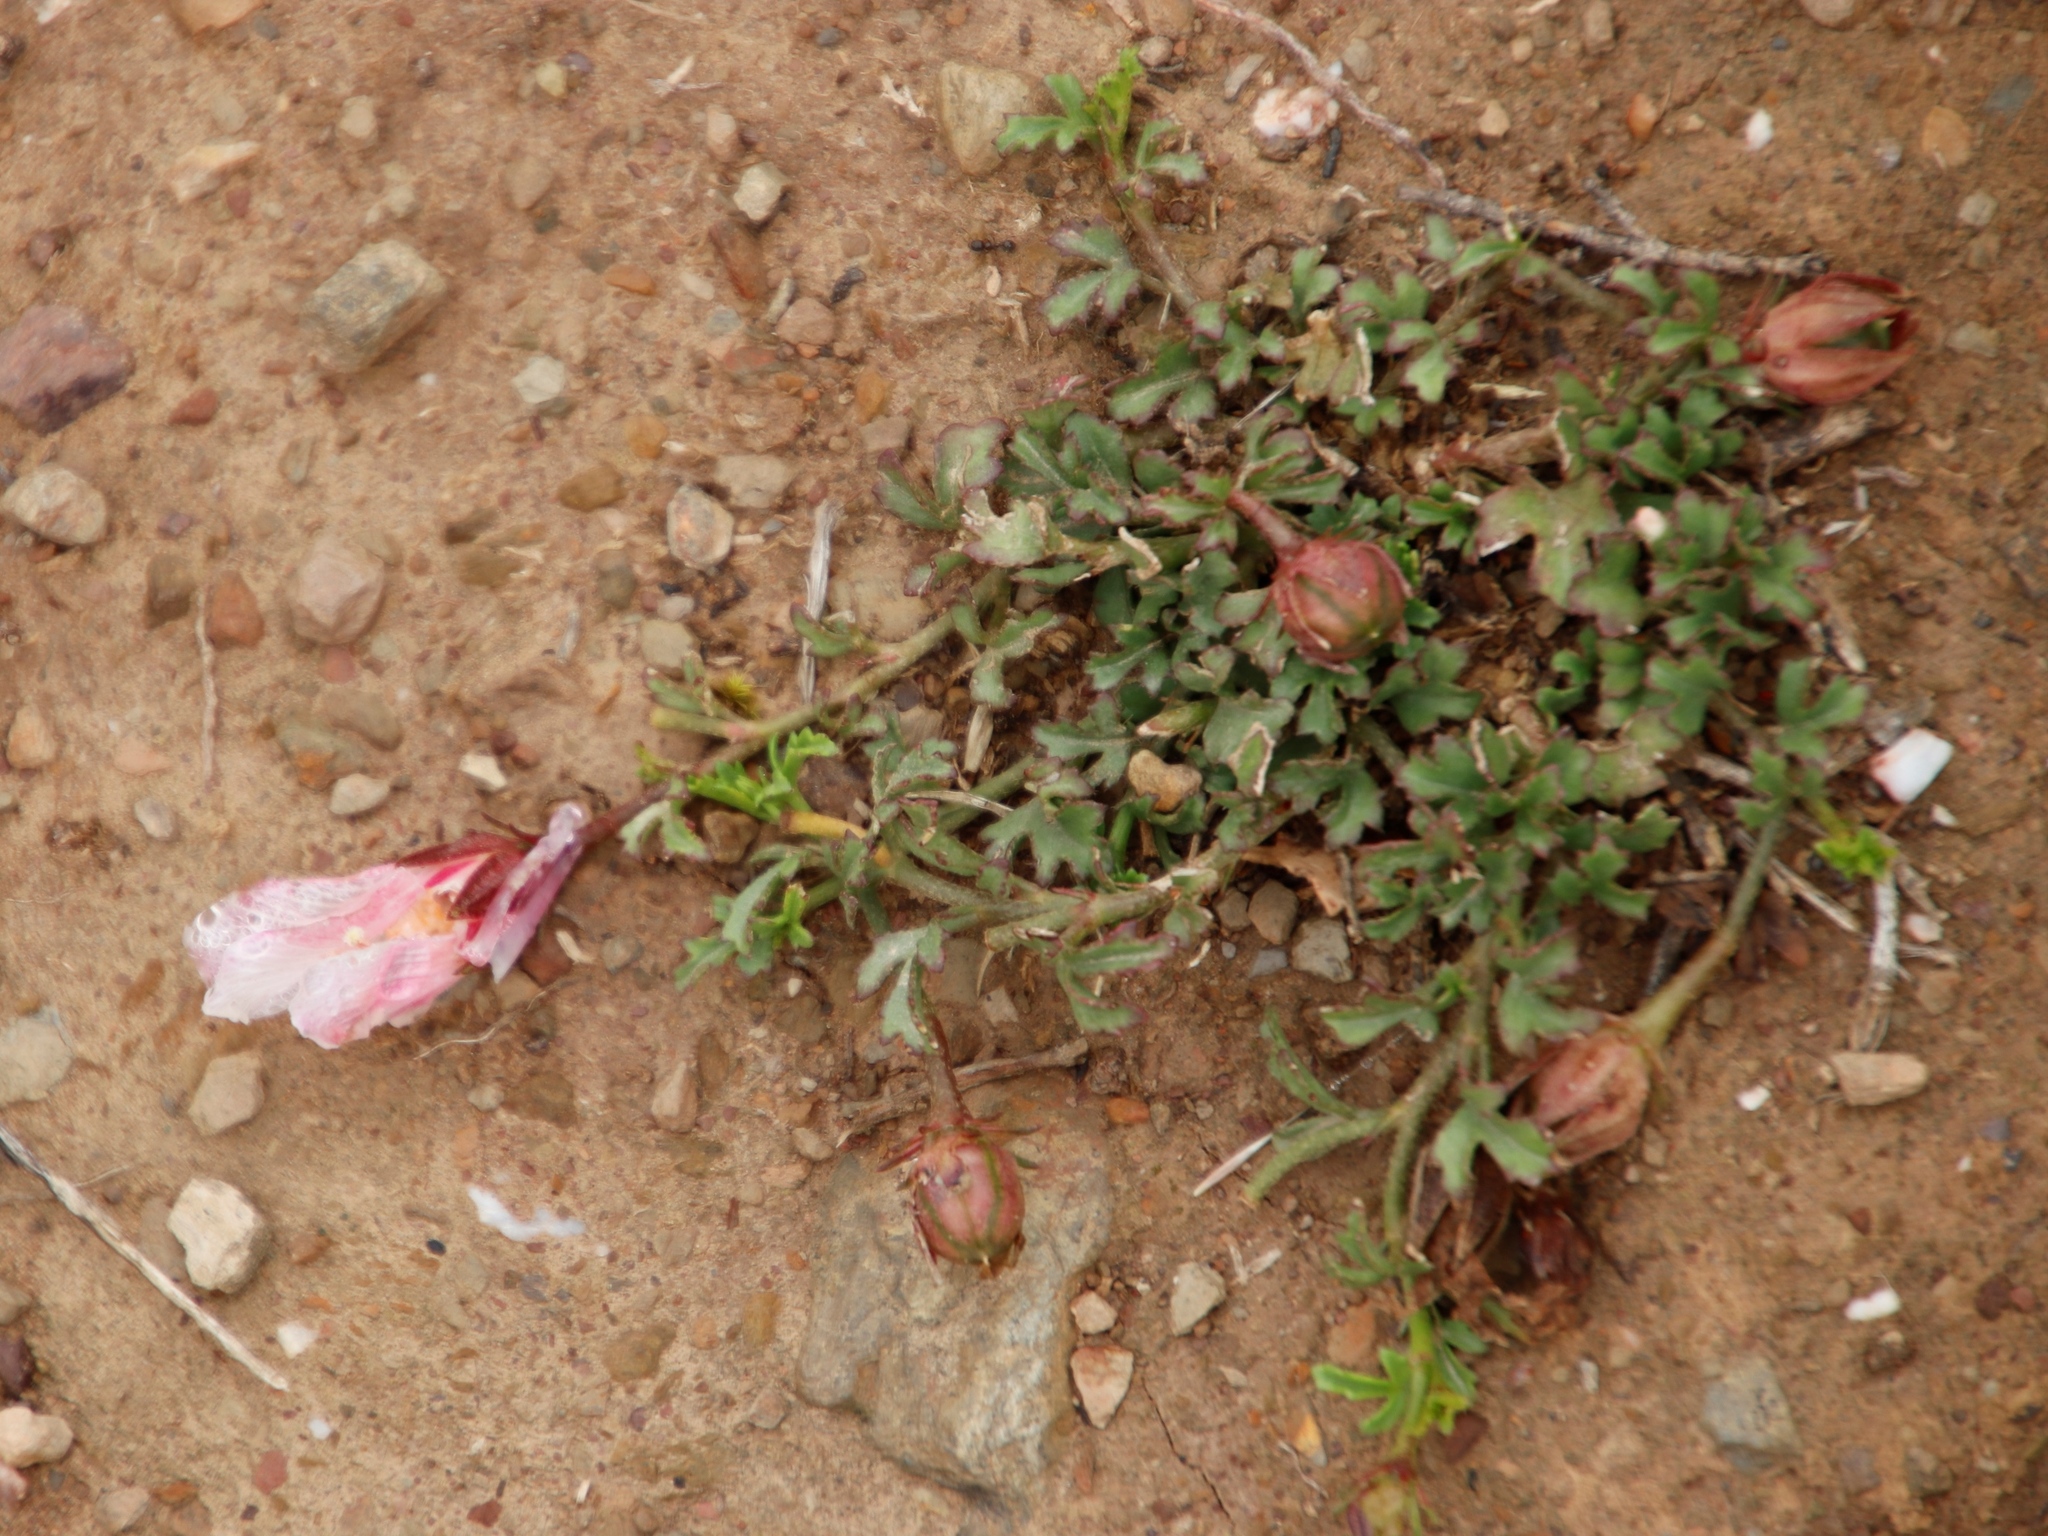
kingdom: Plantae
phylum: Tracheophyta
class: Magnoliopsida
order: Malvales
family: Malvaceae
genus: Hibiscus
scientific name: Hibiscus pusillus
